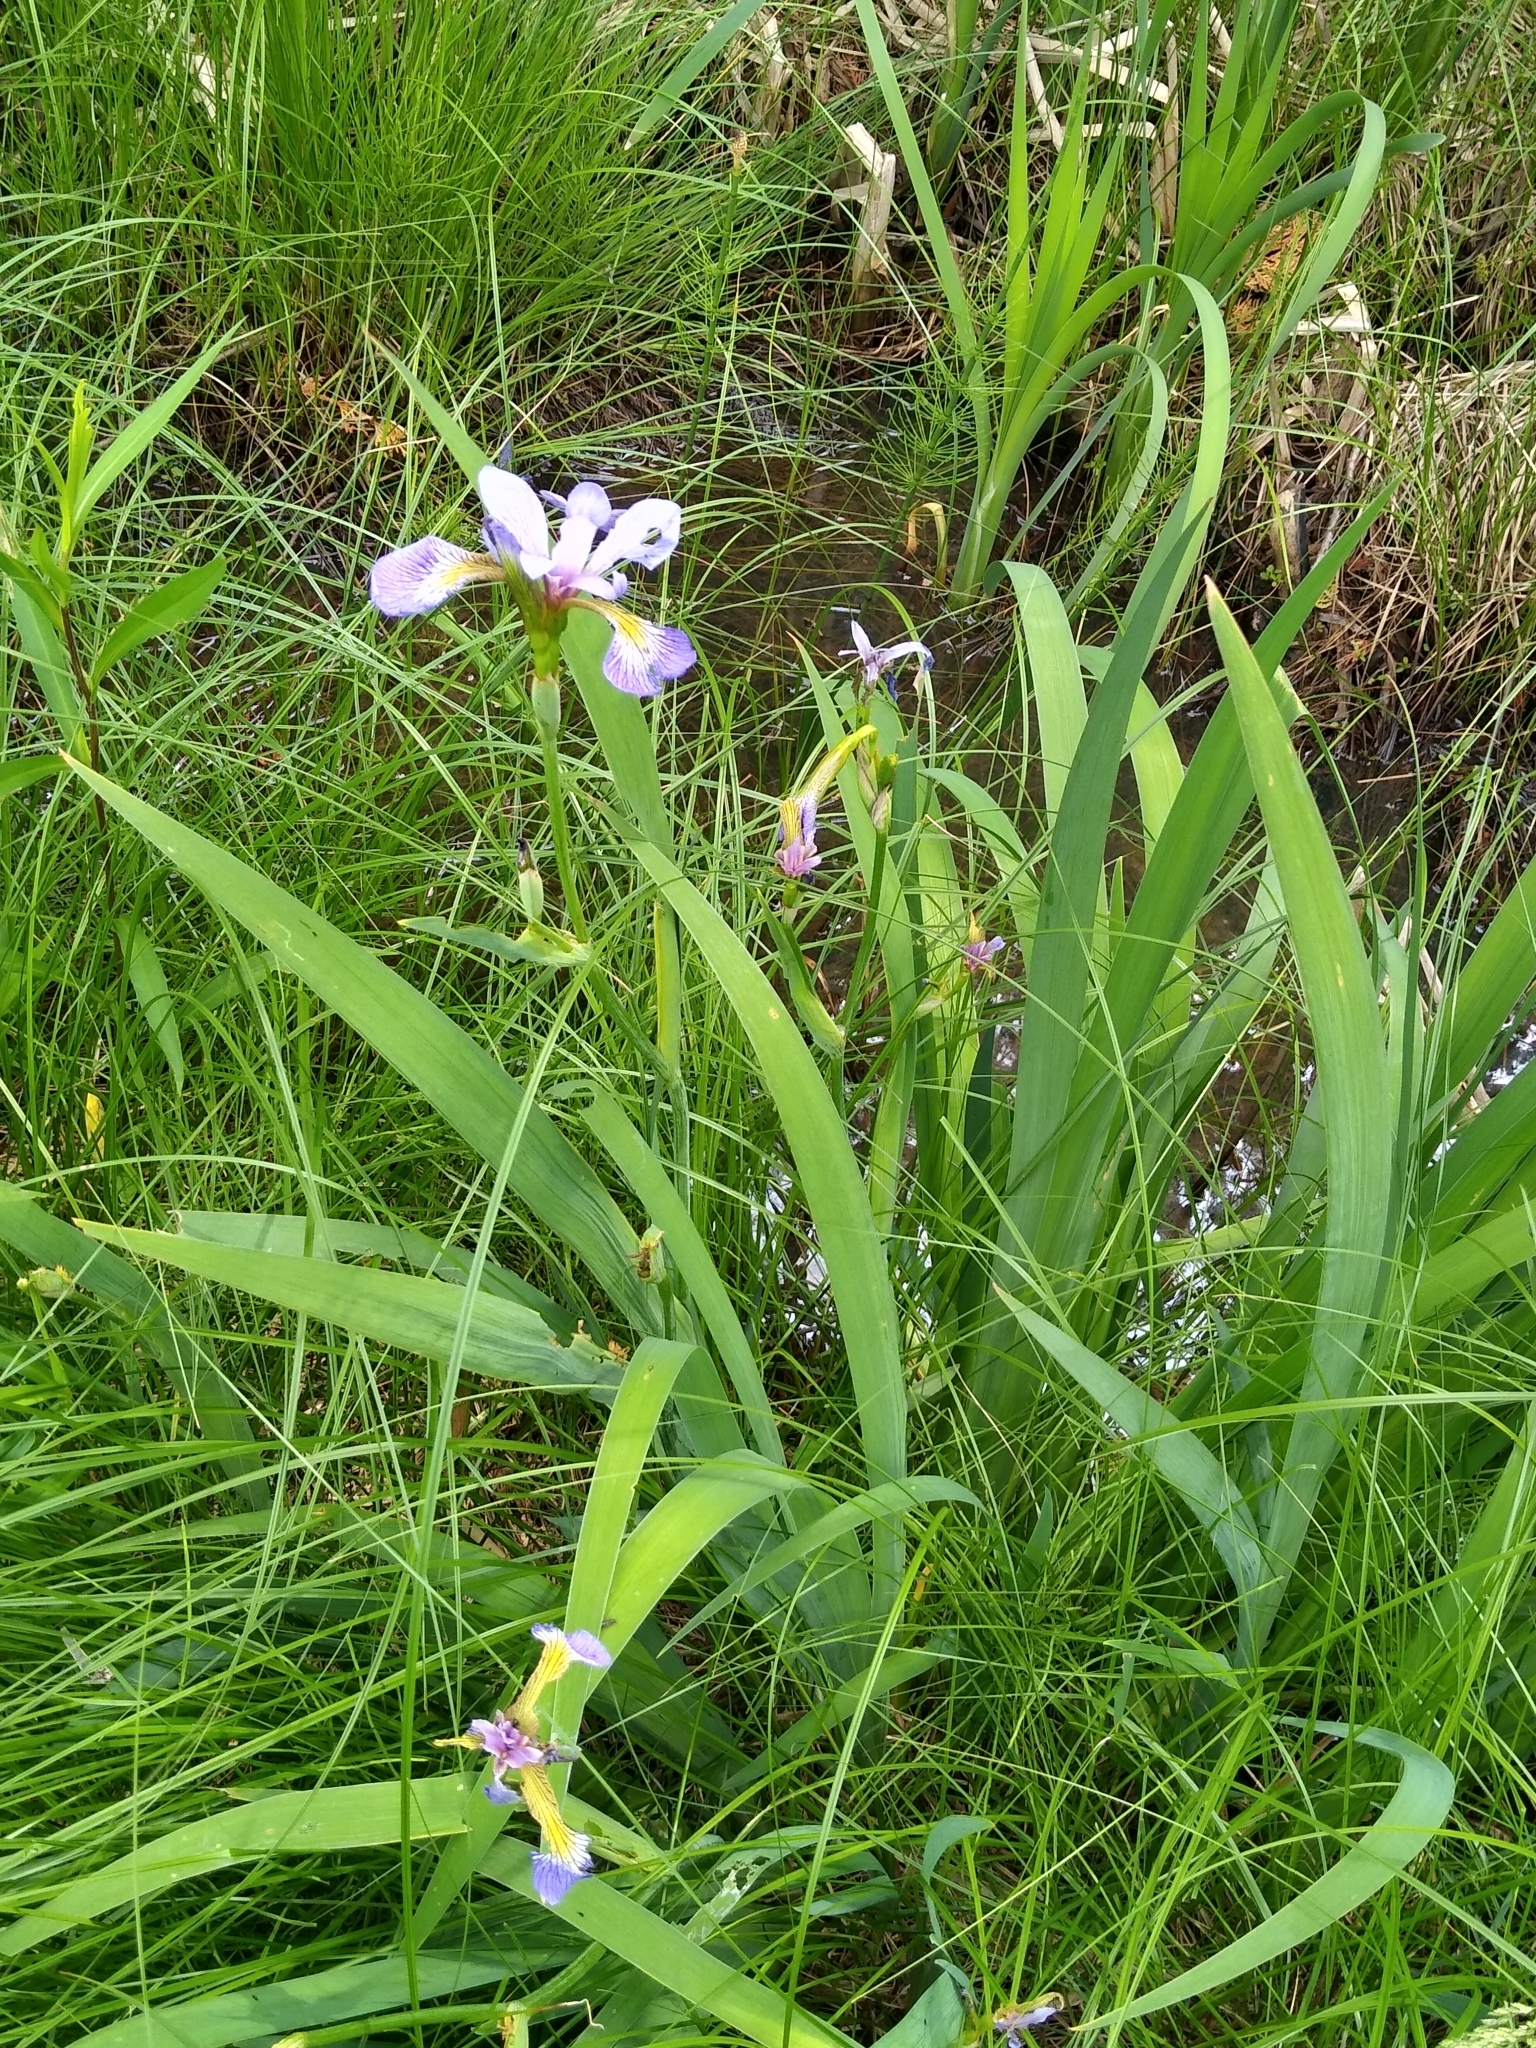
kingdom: Plantae
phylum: Tracheophyta
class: Liliopsida
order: Asparagales
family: Iridaceae
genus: Iris
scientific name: Iris versicolor
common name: Purple iris
